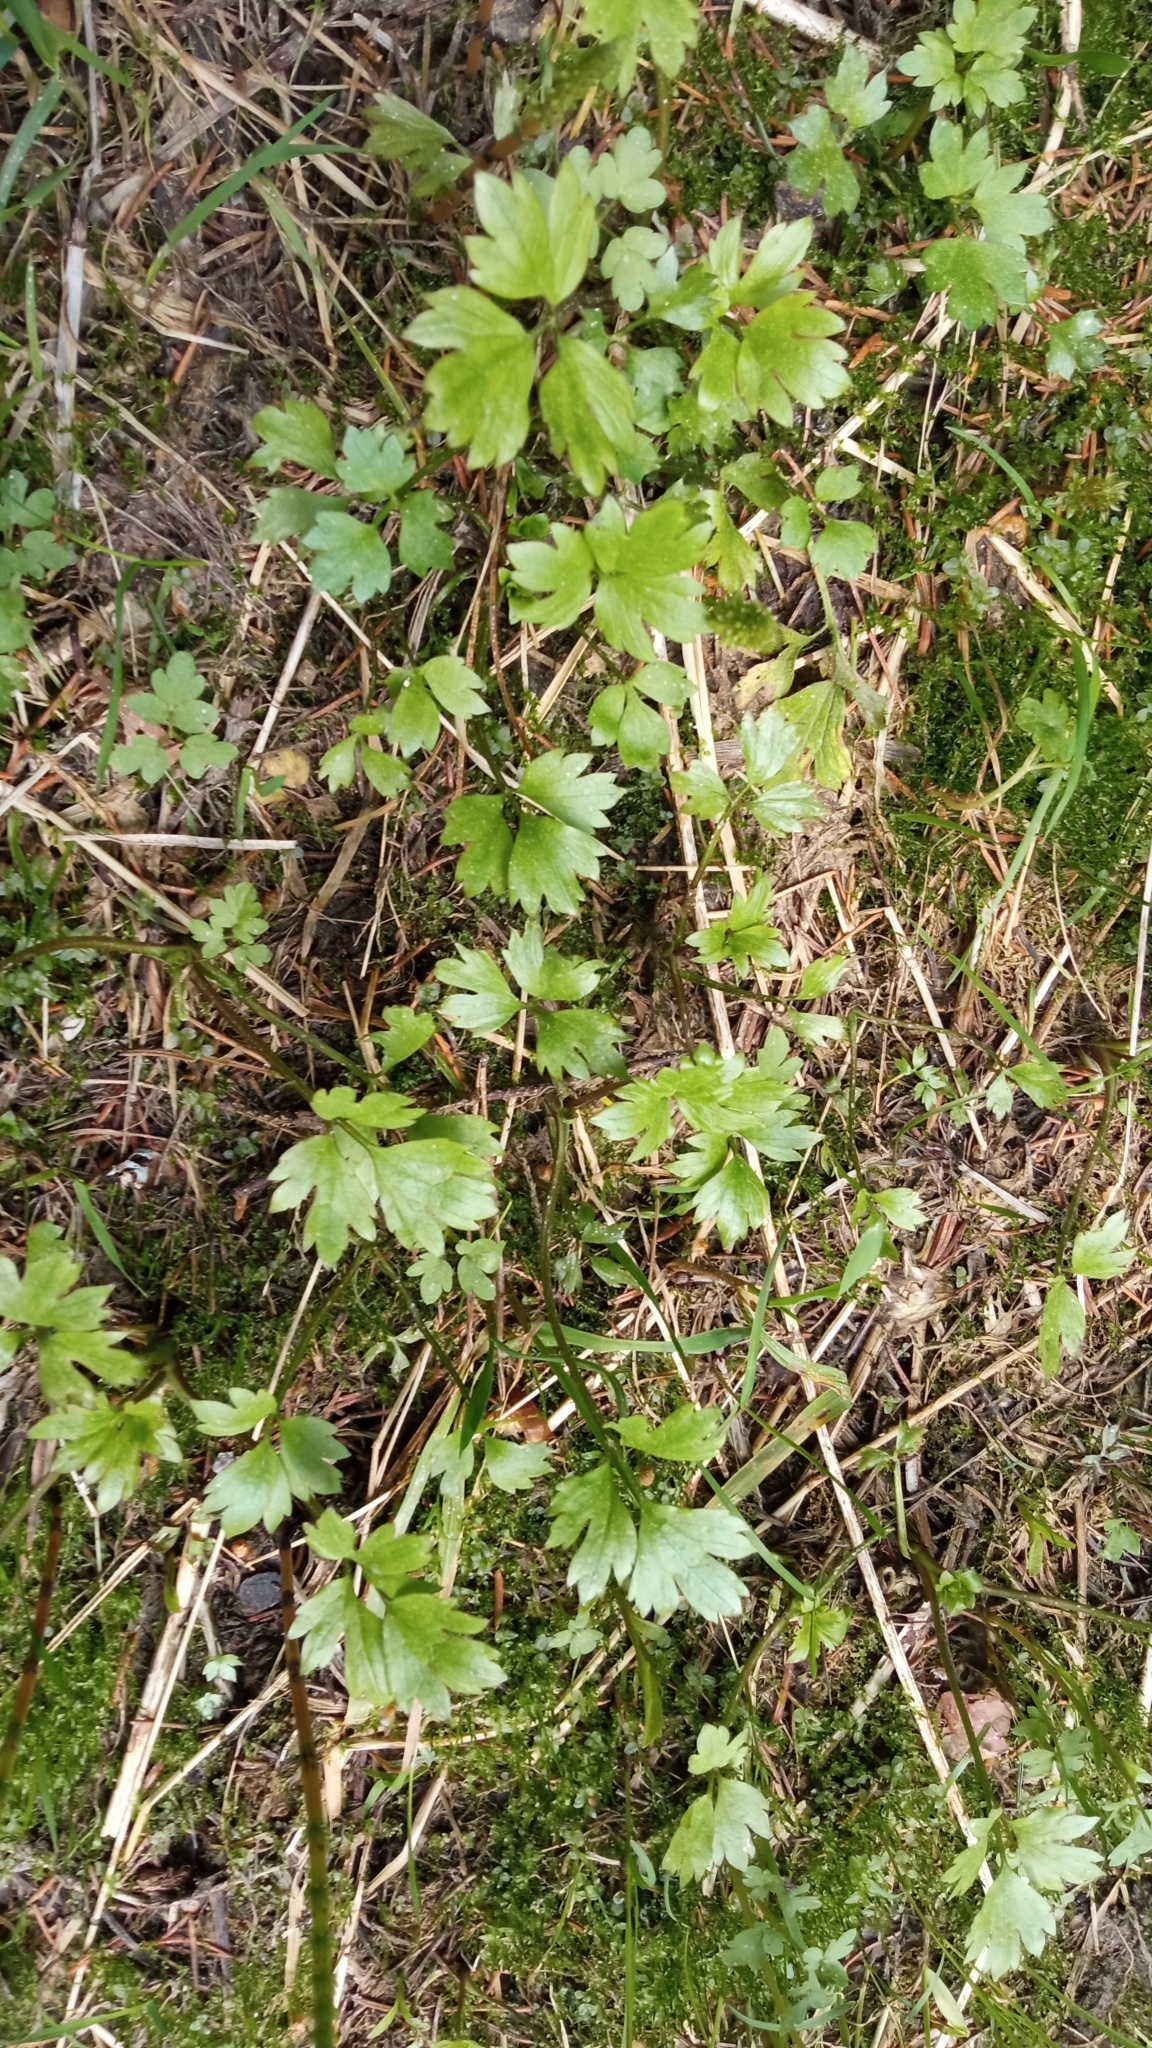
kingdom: Plantae
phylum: Tracheophyta
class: Magnoliopsida
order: Ranunculales
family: Ranunculaceae
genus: Ranunculus
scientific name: Ranunculus repens
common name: Creeping buttercup
